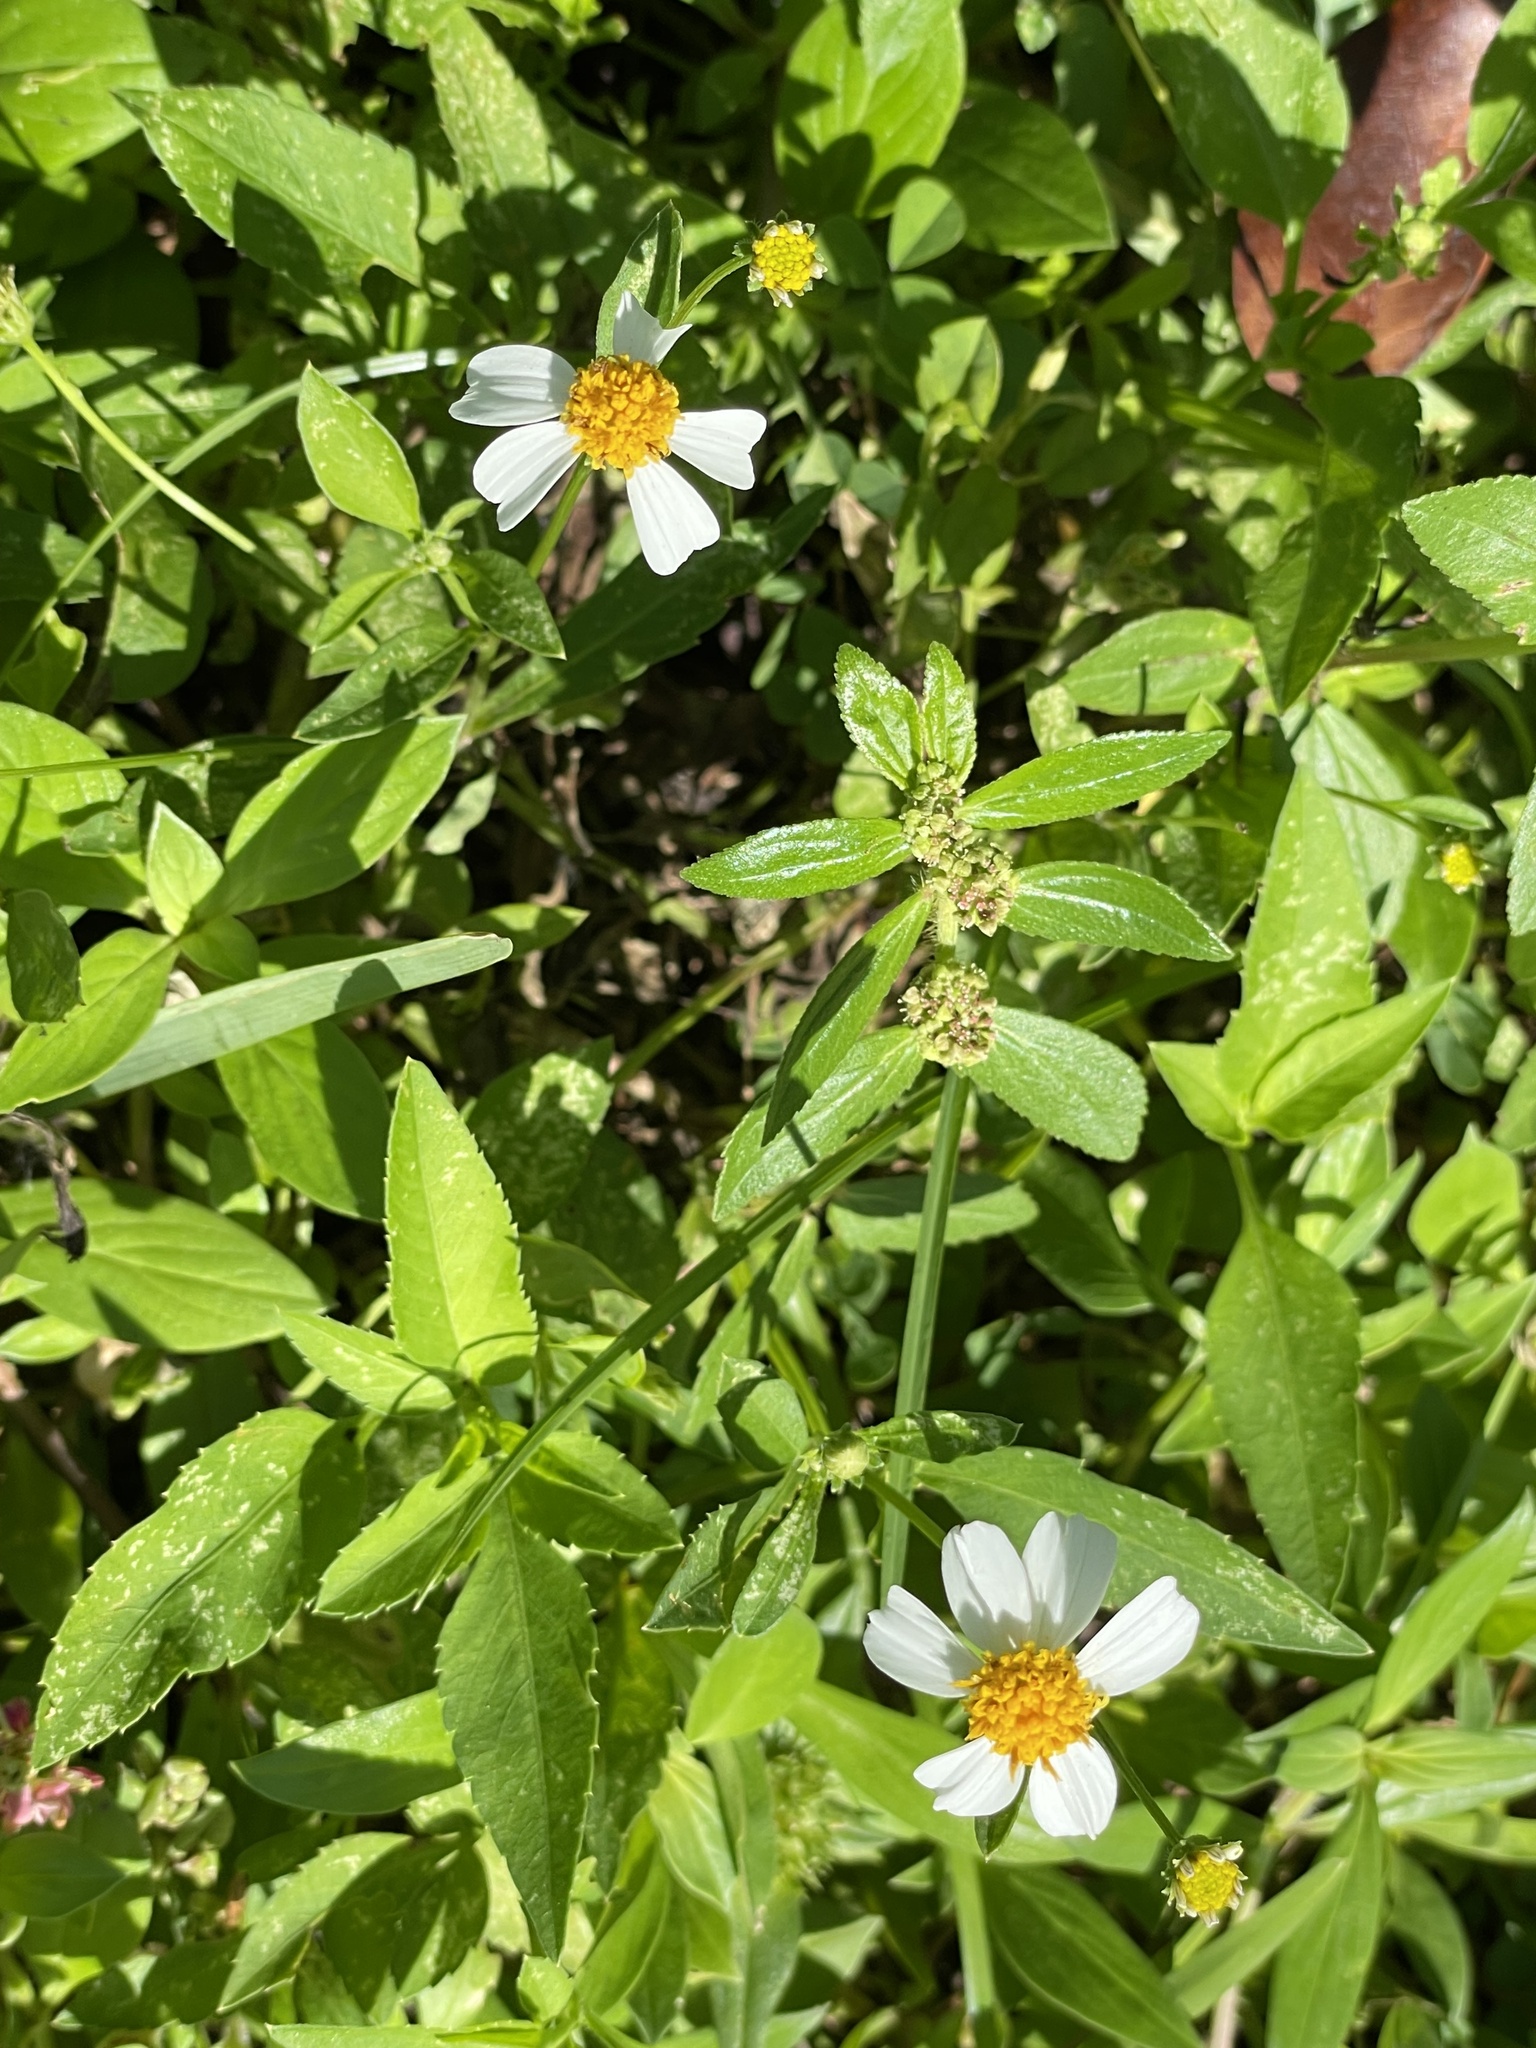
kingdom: Plantae
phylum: Tracheophyta
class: Magnoliopsida
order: Asterales
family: Asteraceae
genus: Bidens
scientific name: Bidens alba
